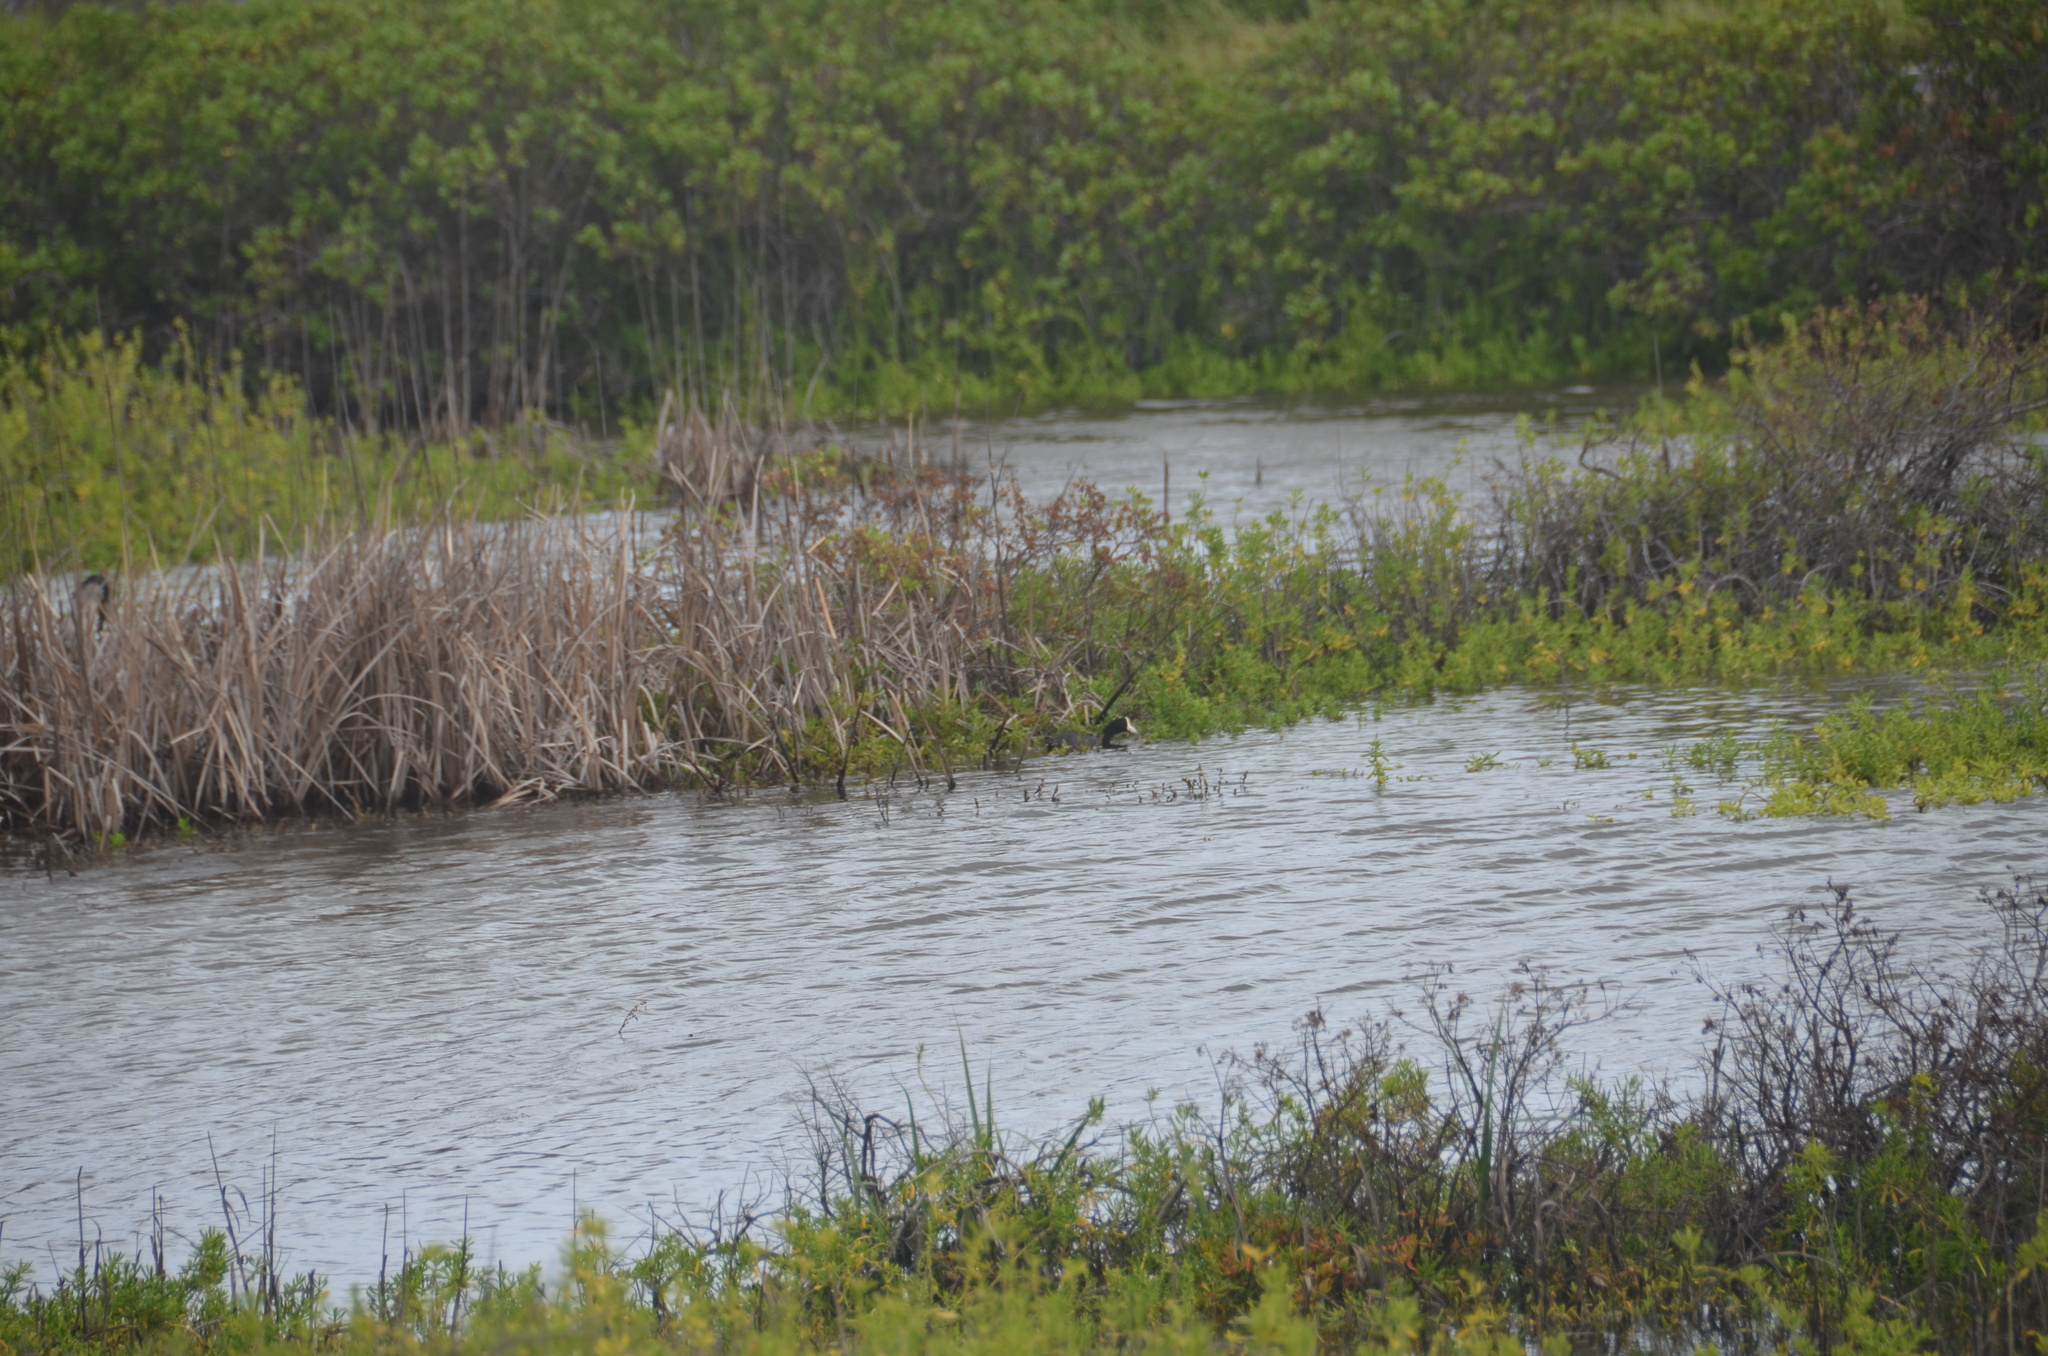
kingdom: Animalia
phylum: Chordata
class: Aves
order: Gruiformes
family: Rallidae
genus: Fulica
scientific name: Fulica alai
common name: Hawaiian coot
